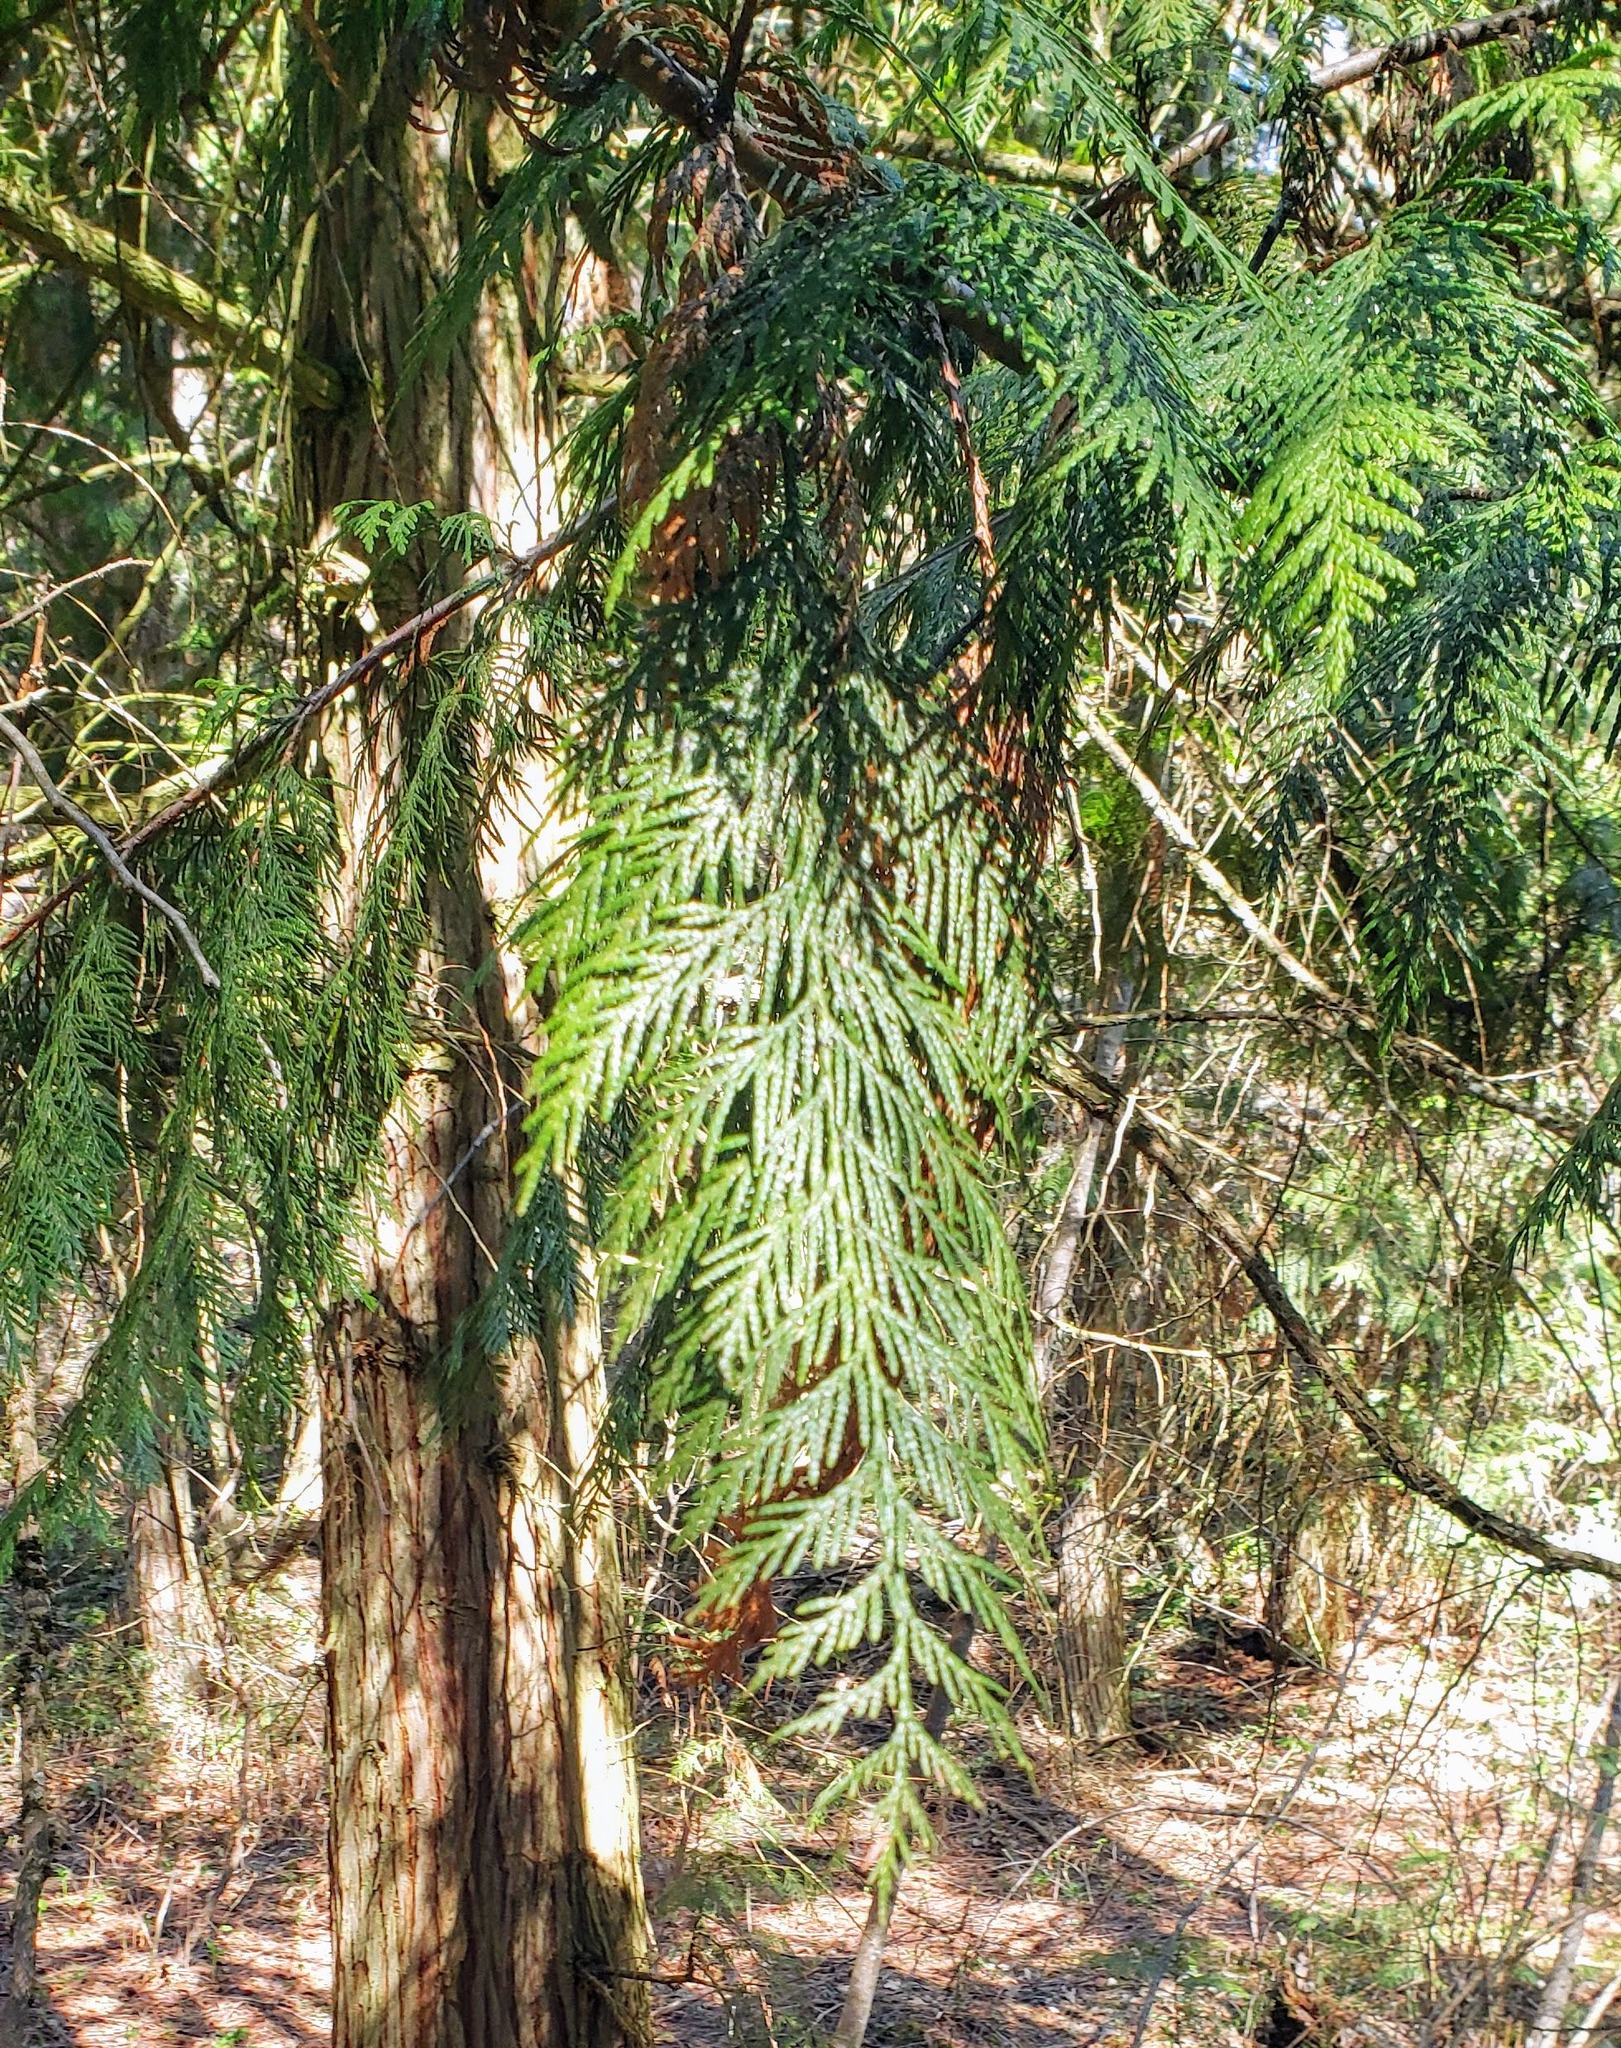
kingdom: Plantae
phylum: Tracheophyta
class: Pinopsida
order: Pinales
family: Cupressaceae
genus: Thuja
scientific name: Thuja plicata
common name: Western red-cedar
